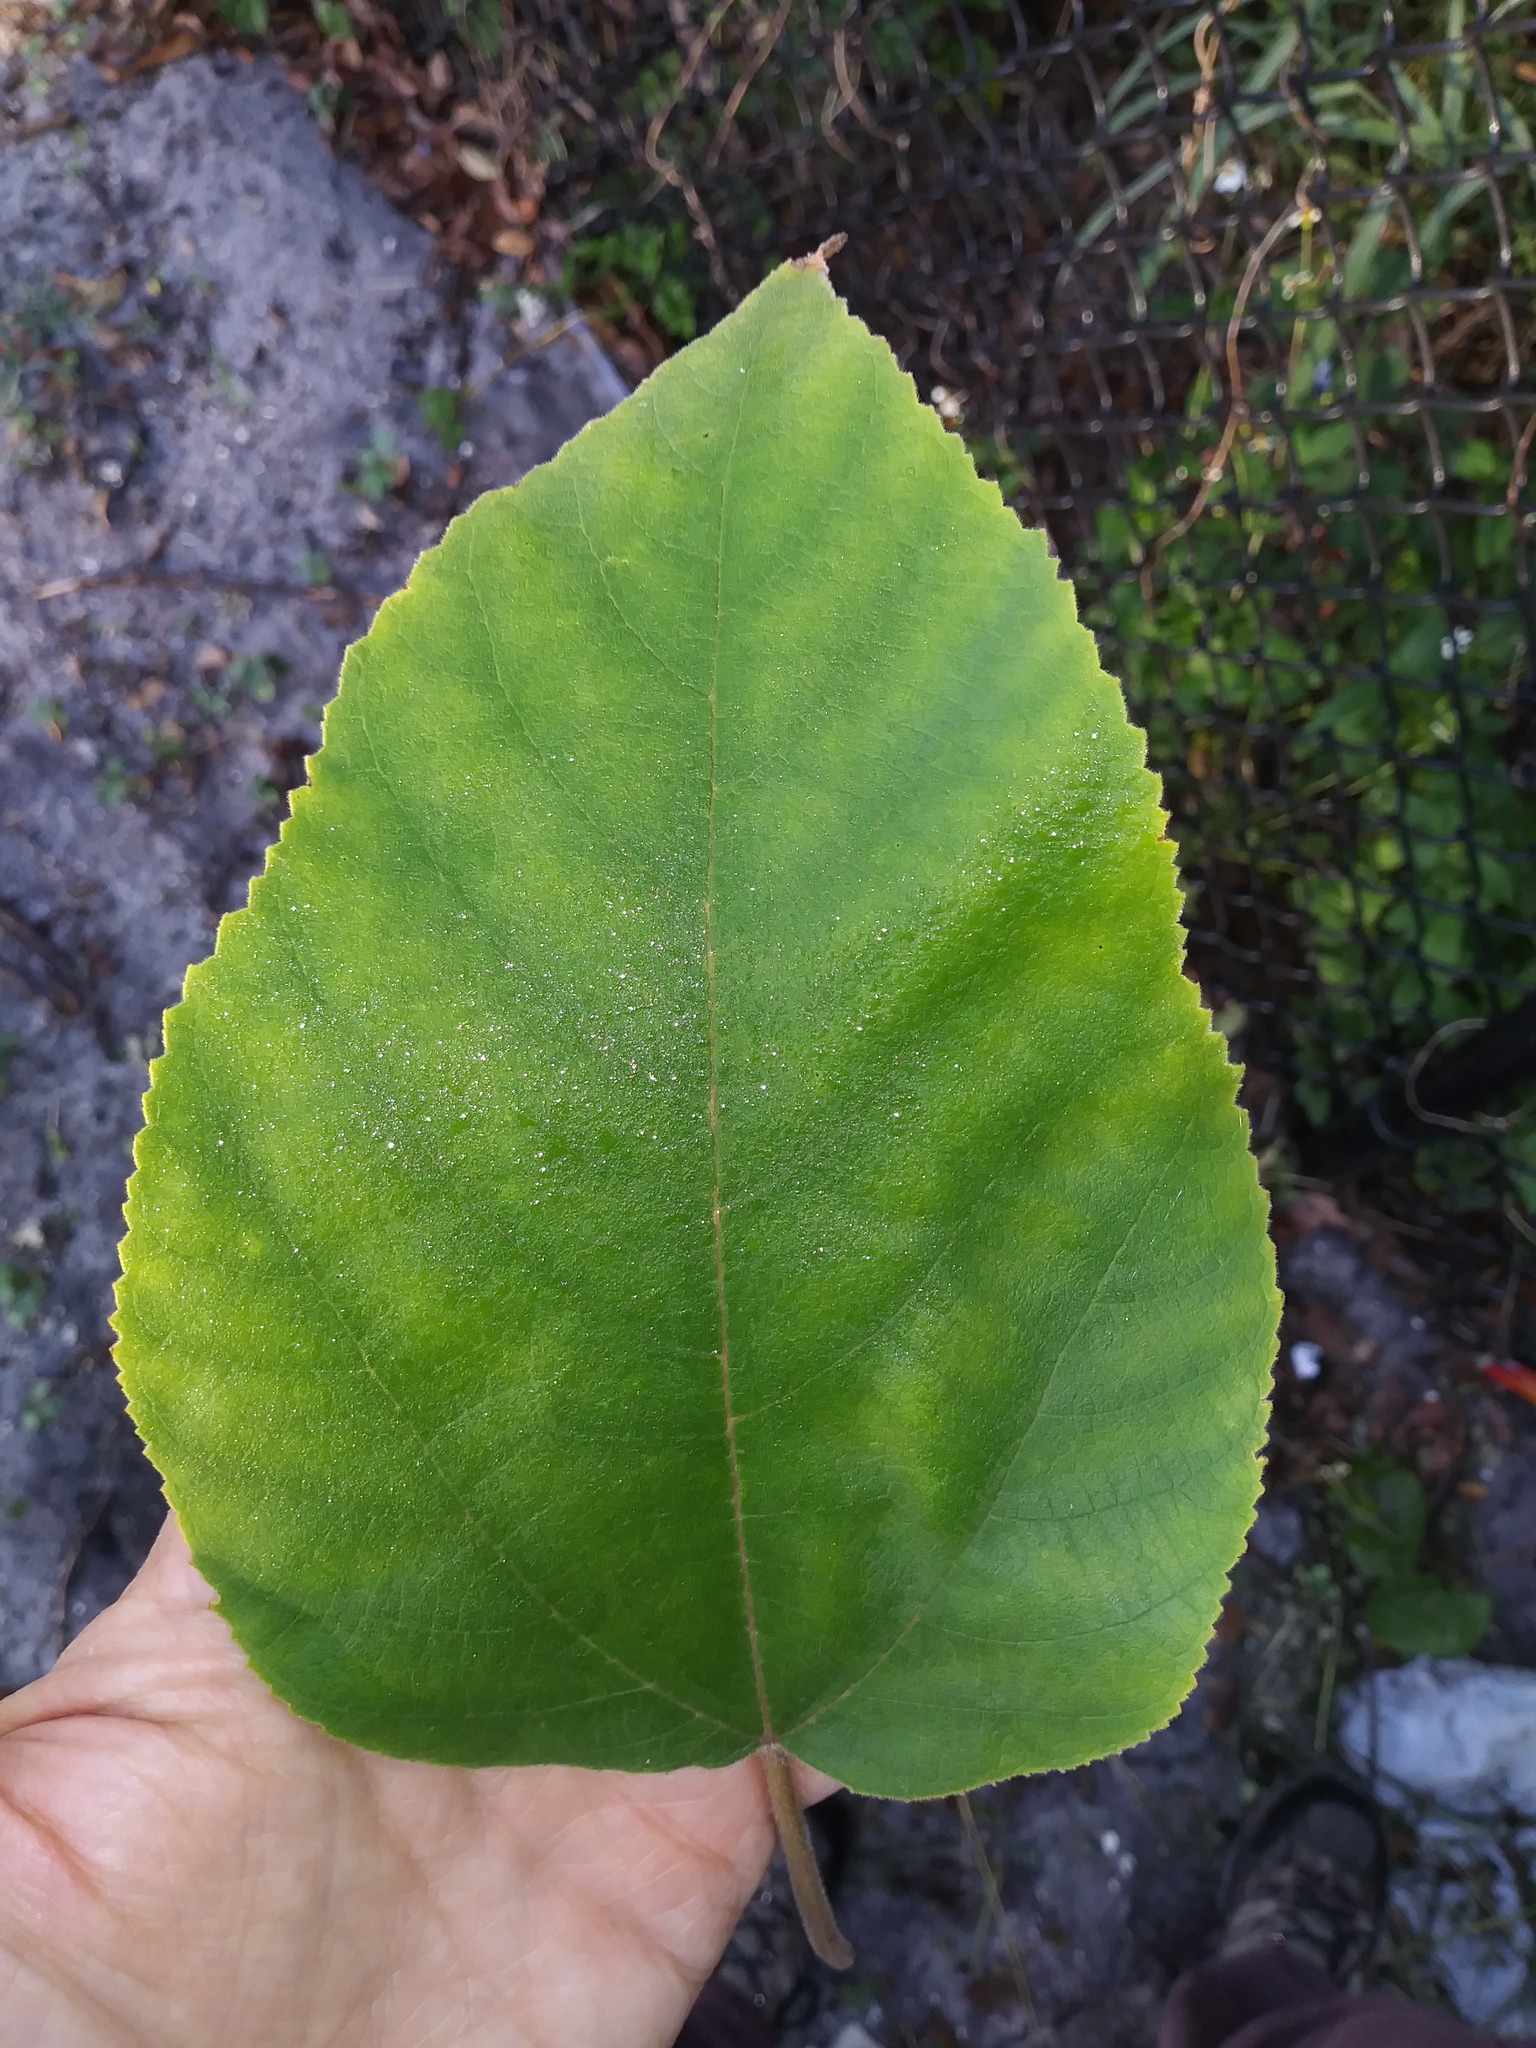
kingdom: Plantae
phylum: Tracheophyta
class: Magnoliopsida
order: Rosales
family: Moraceae
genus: Broussonetia
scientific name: Broussonetia papyrifera
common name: Paper mulberry
